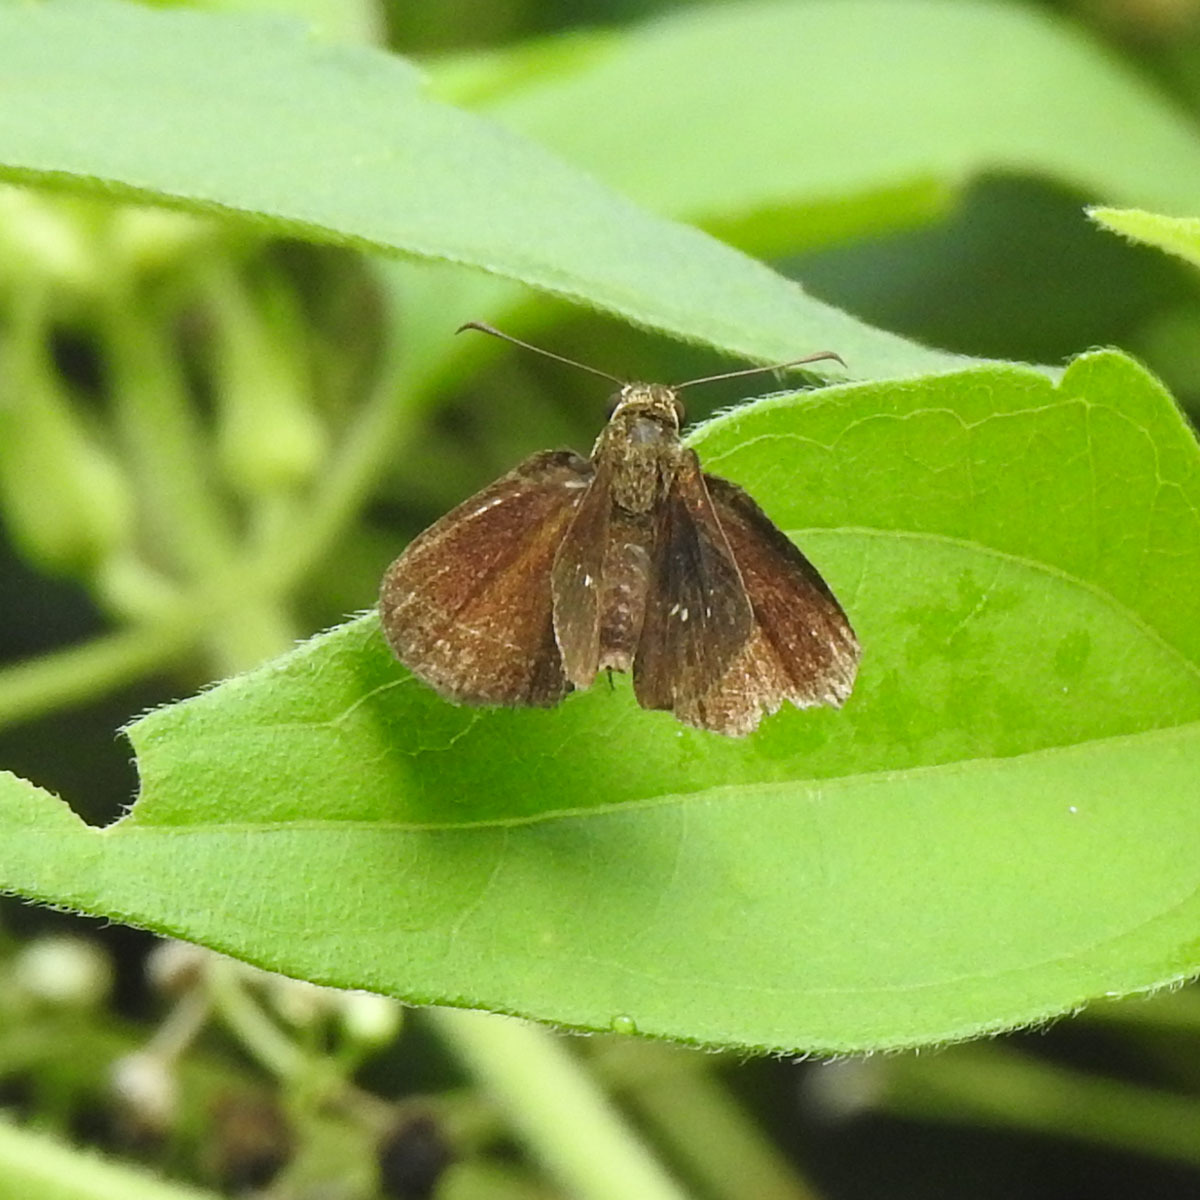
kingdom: Animalia
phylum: Arthropoda
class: Insecta
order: Lepidoptera
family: Hesperiidae
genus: Iambrix
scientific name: Iambrix salsala
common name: Chestnut bob
